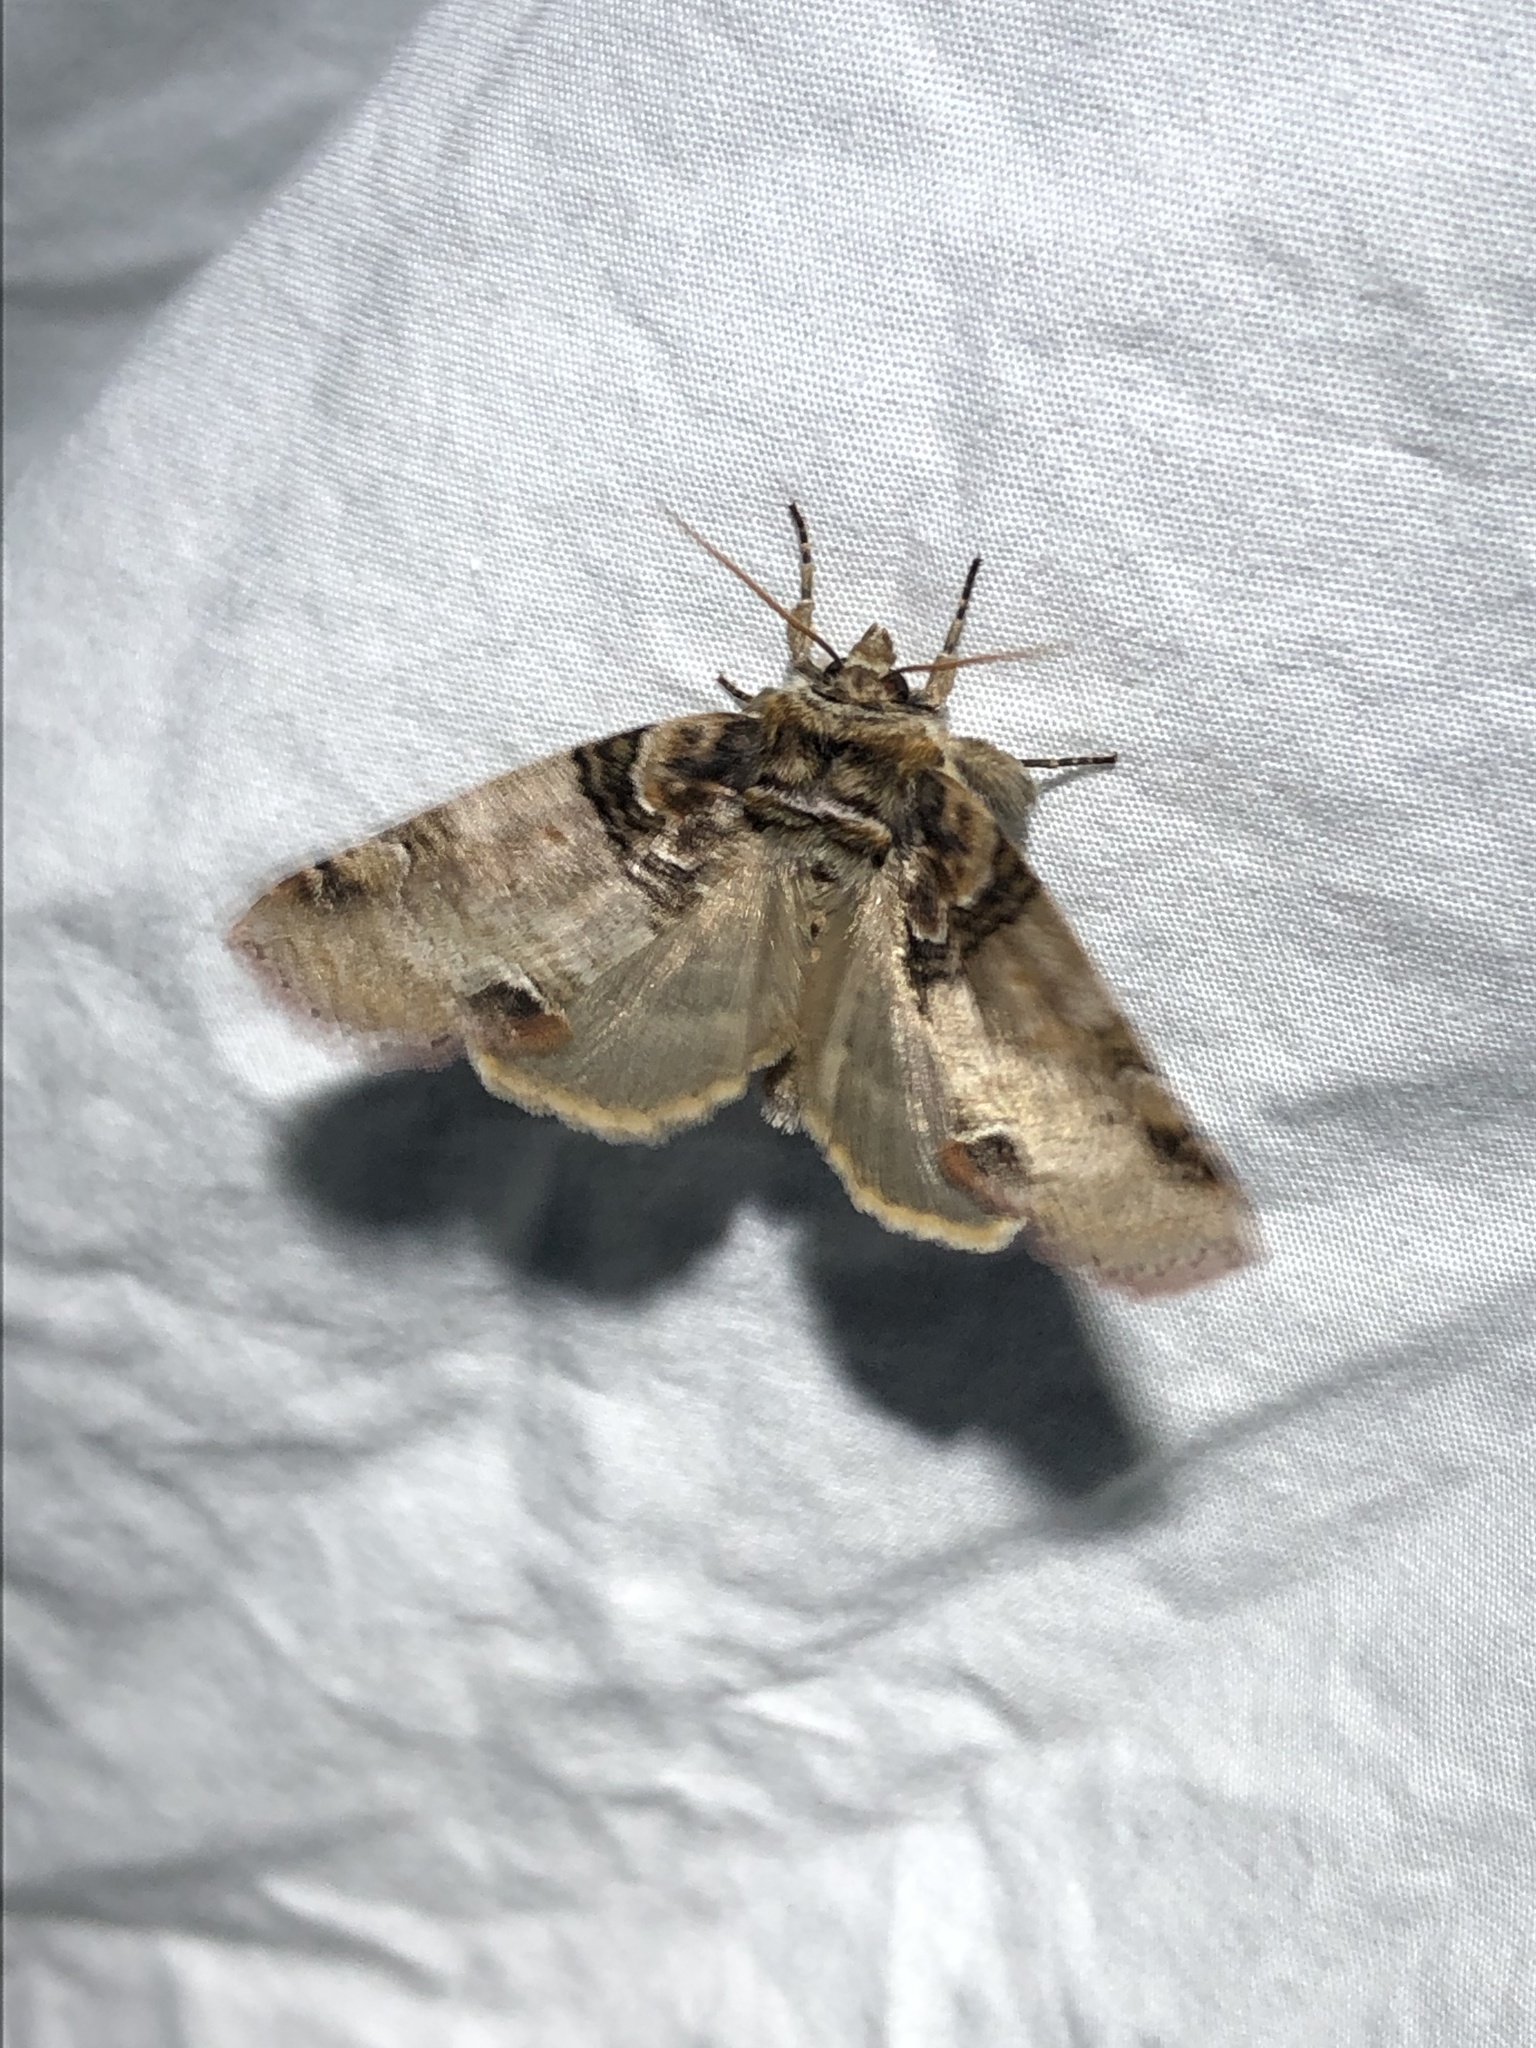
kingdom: Animalia
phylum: Arthropoda
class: Insecta
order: Lepidoptera
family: Drepanidae
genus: Pseudothyatira
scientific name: Pseudothyatira cymatophoroides
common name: Tufted thyatirid moth
